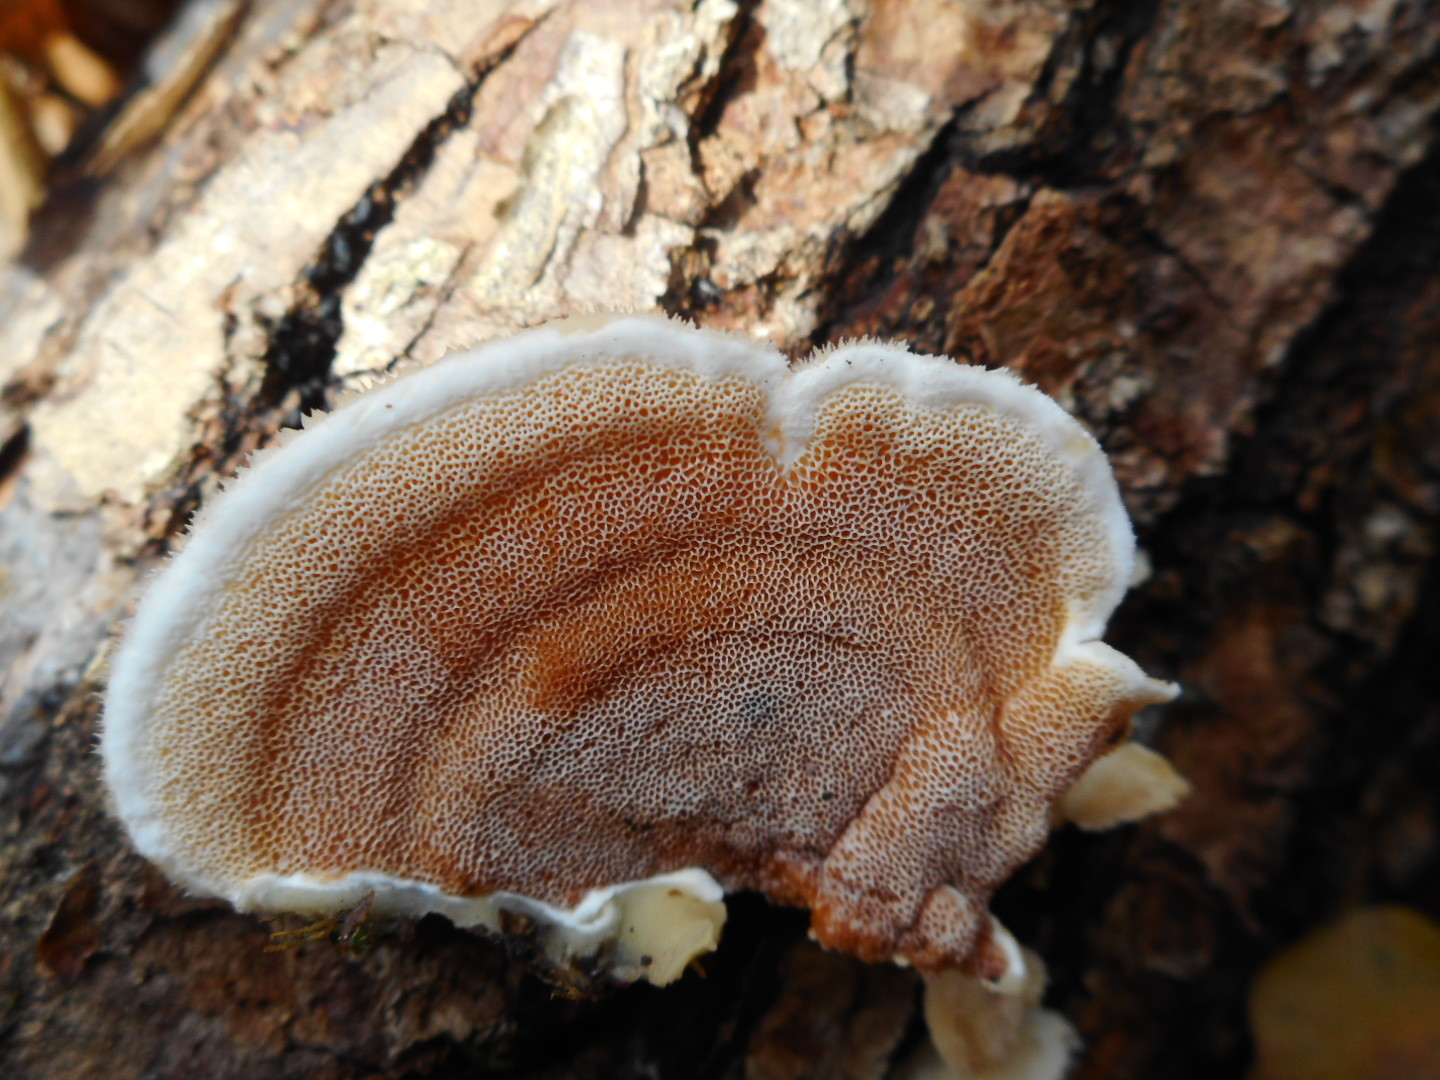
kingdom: Fungi
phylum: Basidiomycota
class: Agaricomycetes
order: Polyporales
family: Irpicaceae
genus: Vitreoporus
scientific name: Vitreoporus dichrous
